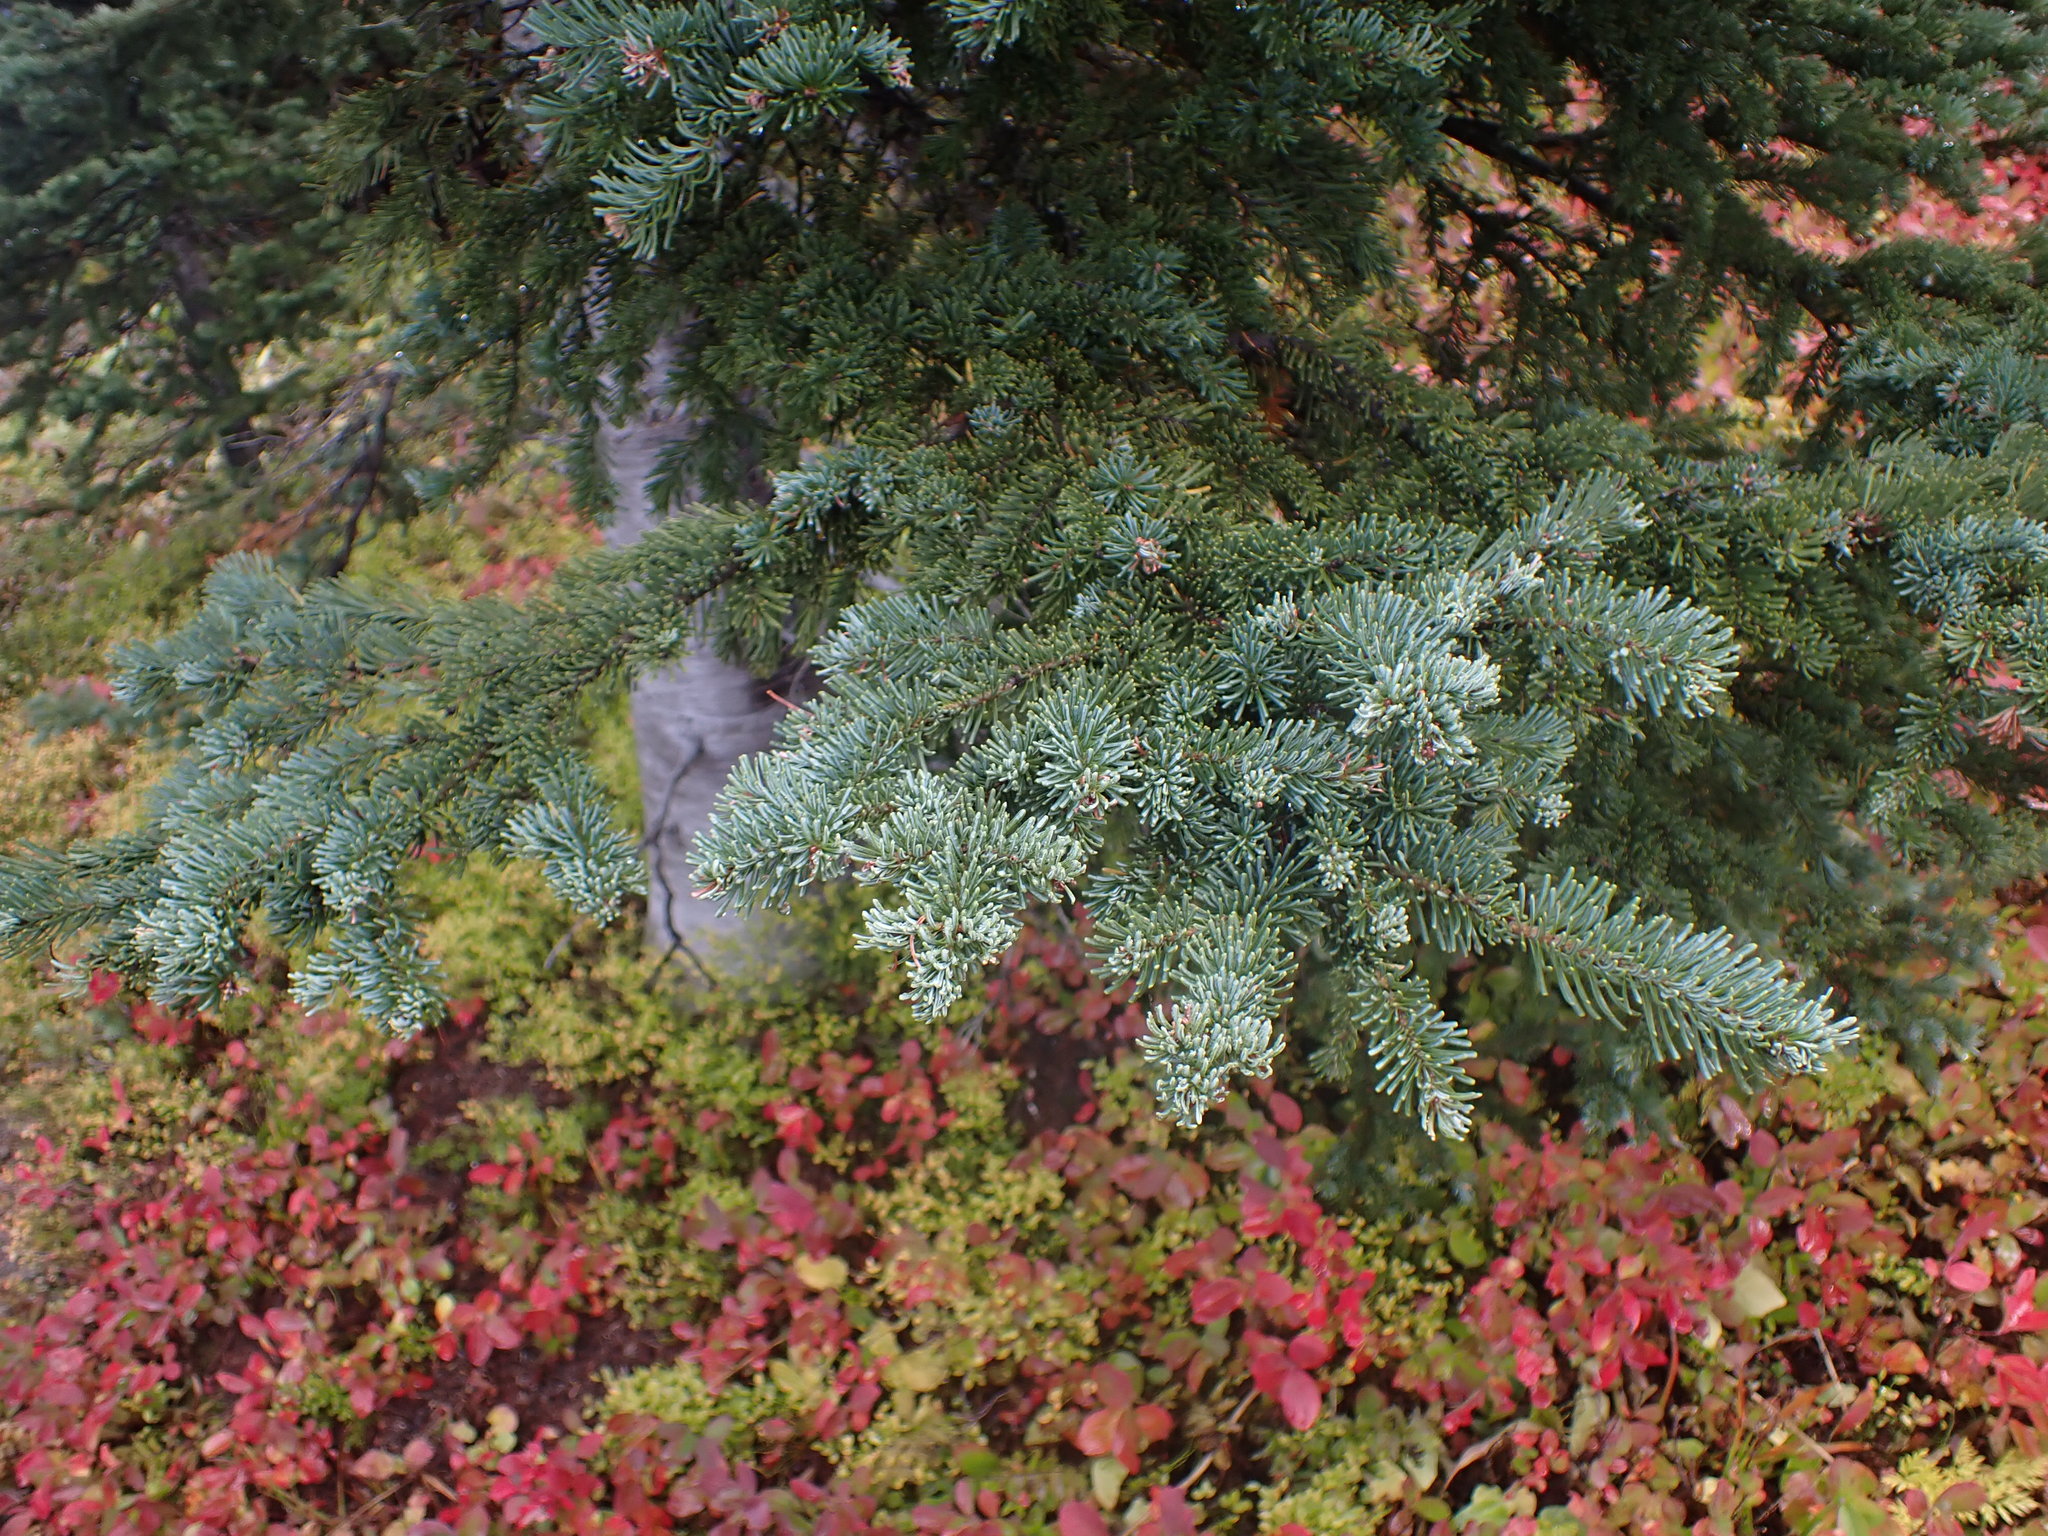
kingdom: Plantae
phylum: Tracheophyta
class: Pinopsida
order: Pinales
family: Pinaceae
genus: Abies
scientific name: Abies lasiocarpa
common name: Subalpine fir
